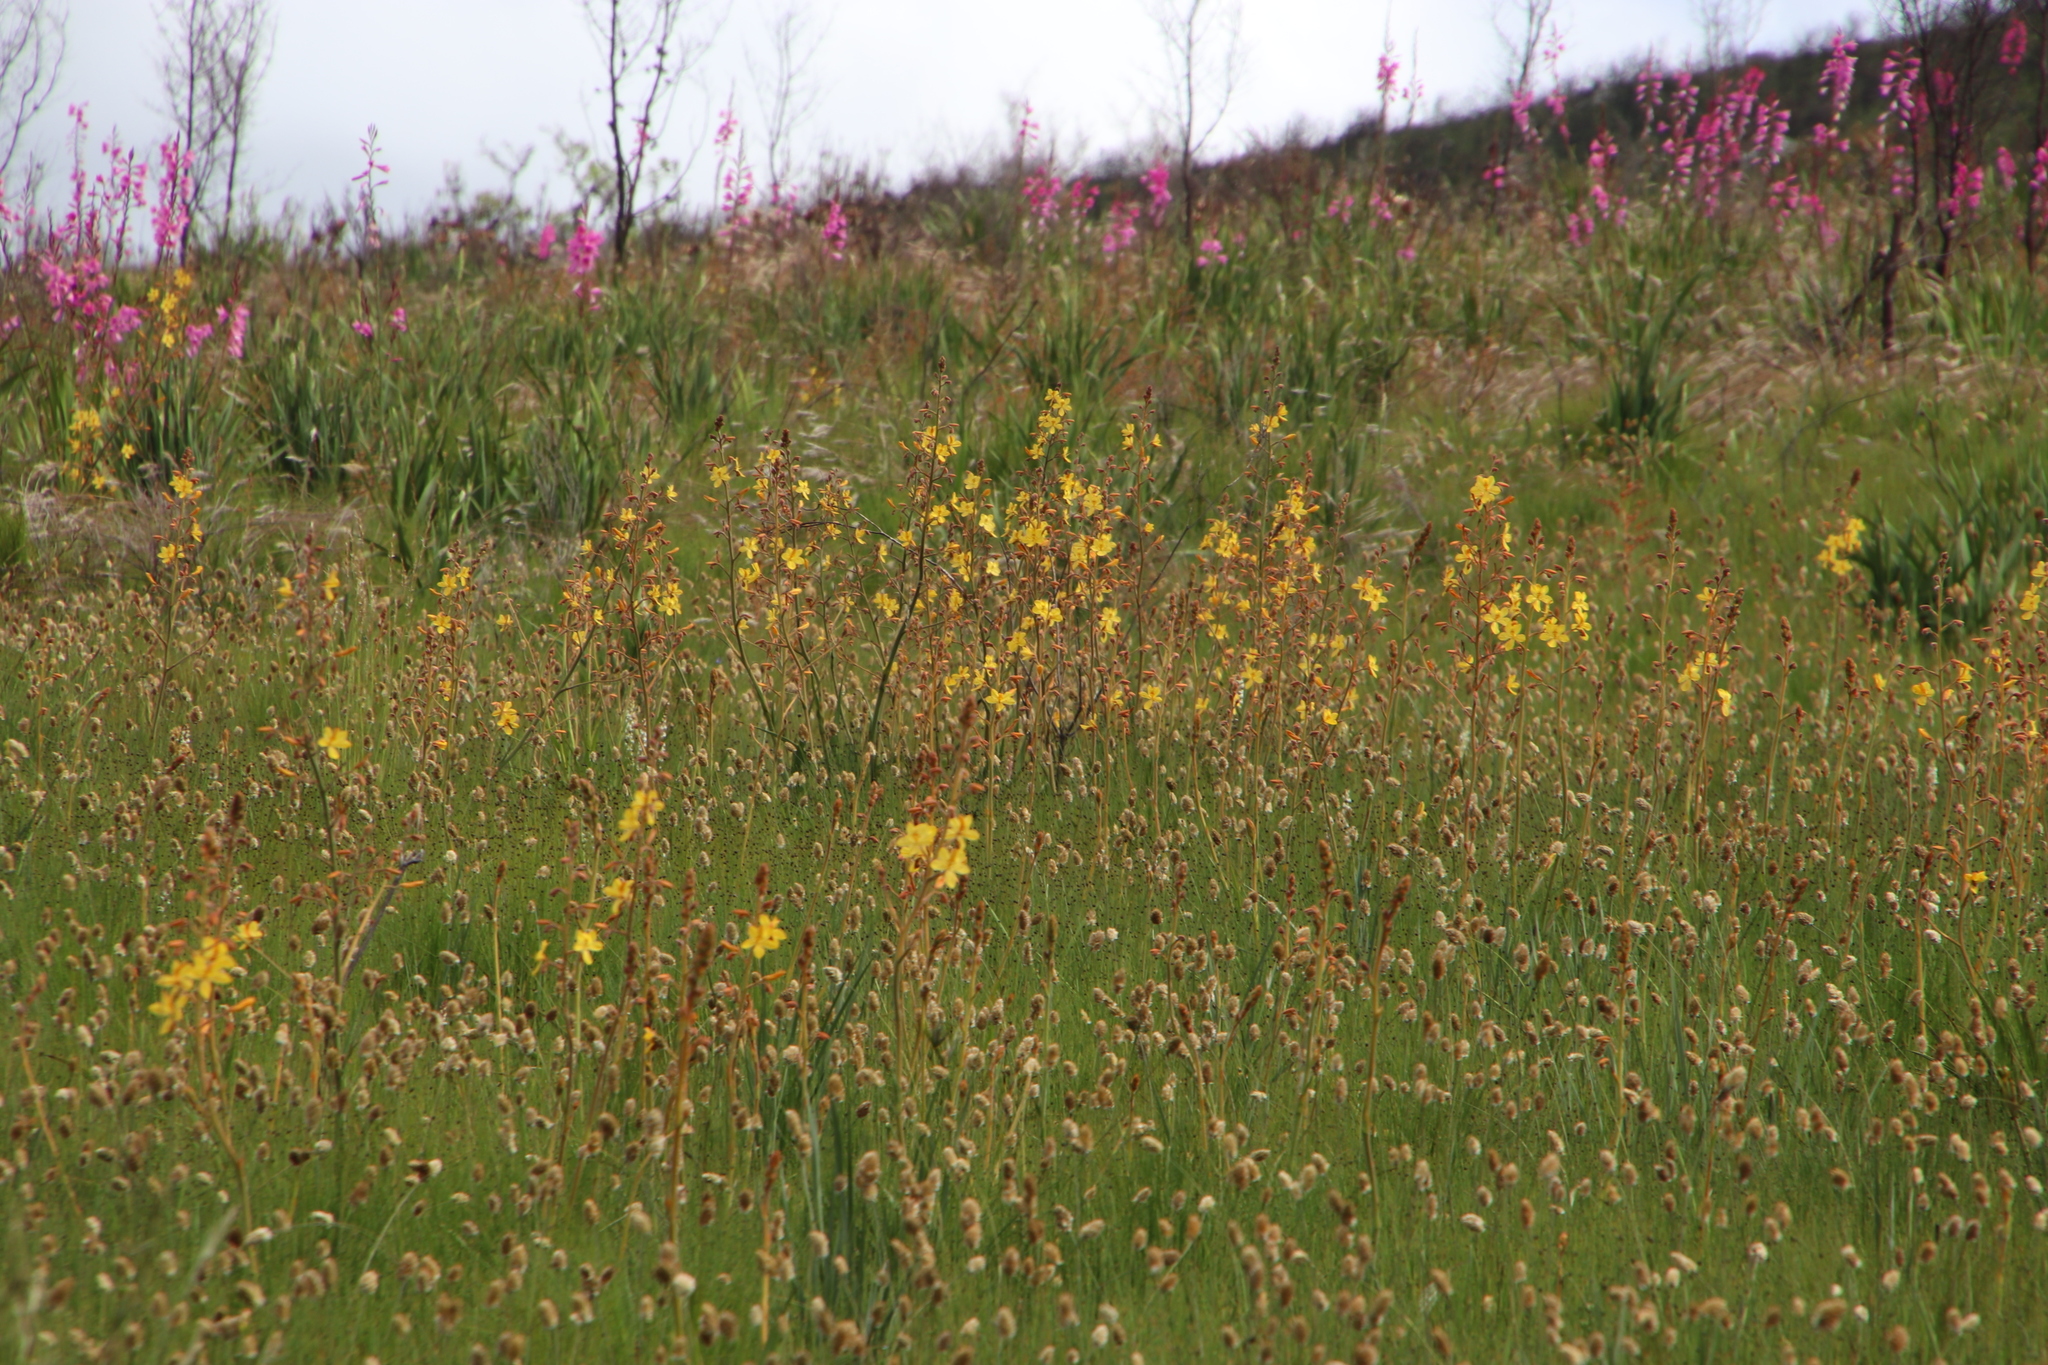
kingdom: Plantae
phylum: Tracheophyta
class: Liliopsida
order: Commelinales
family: Haemodoraceae
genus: Wachendorfia
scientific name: Wachendorfia paniculata
